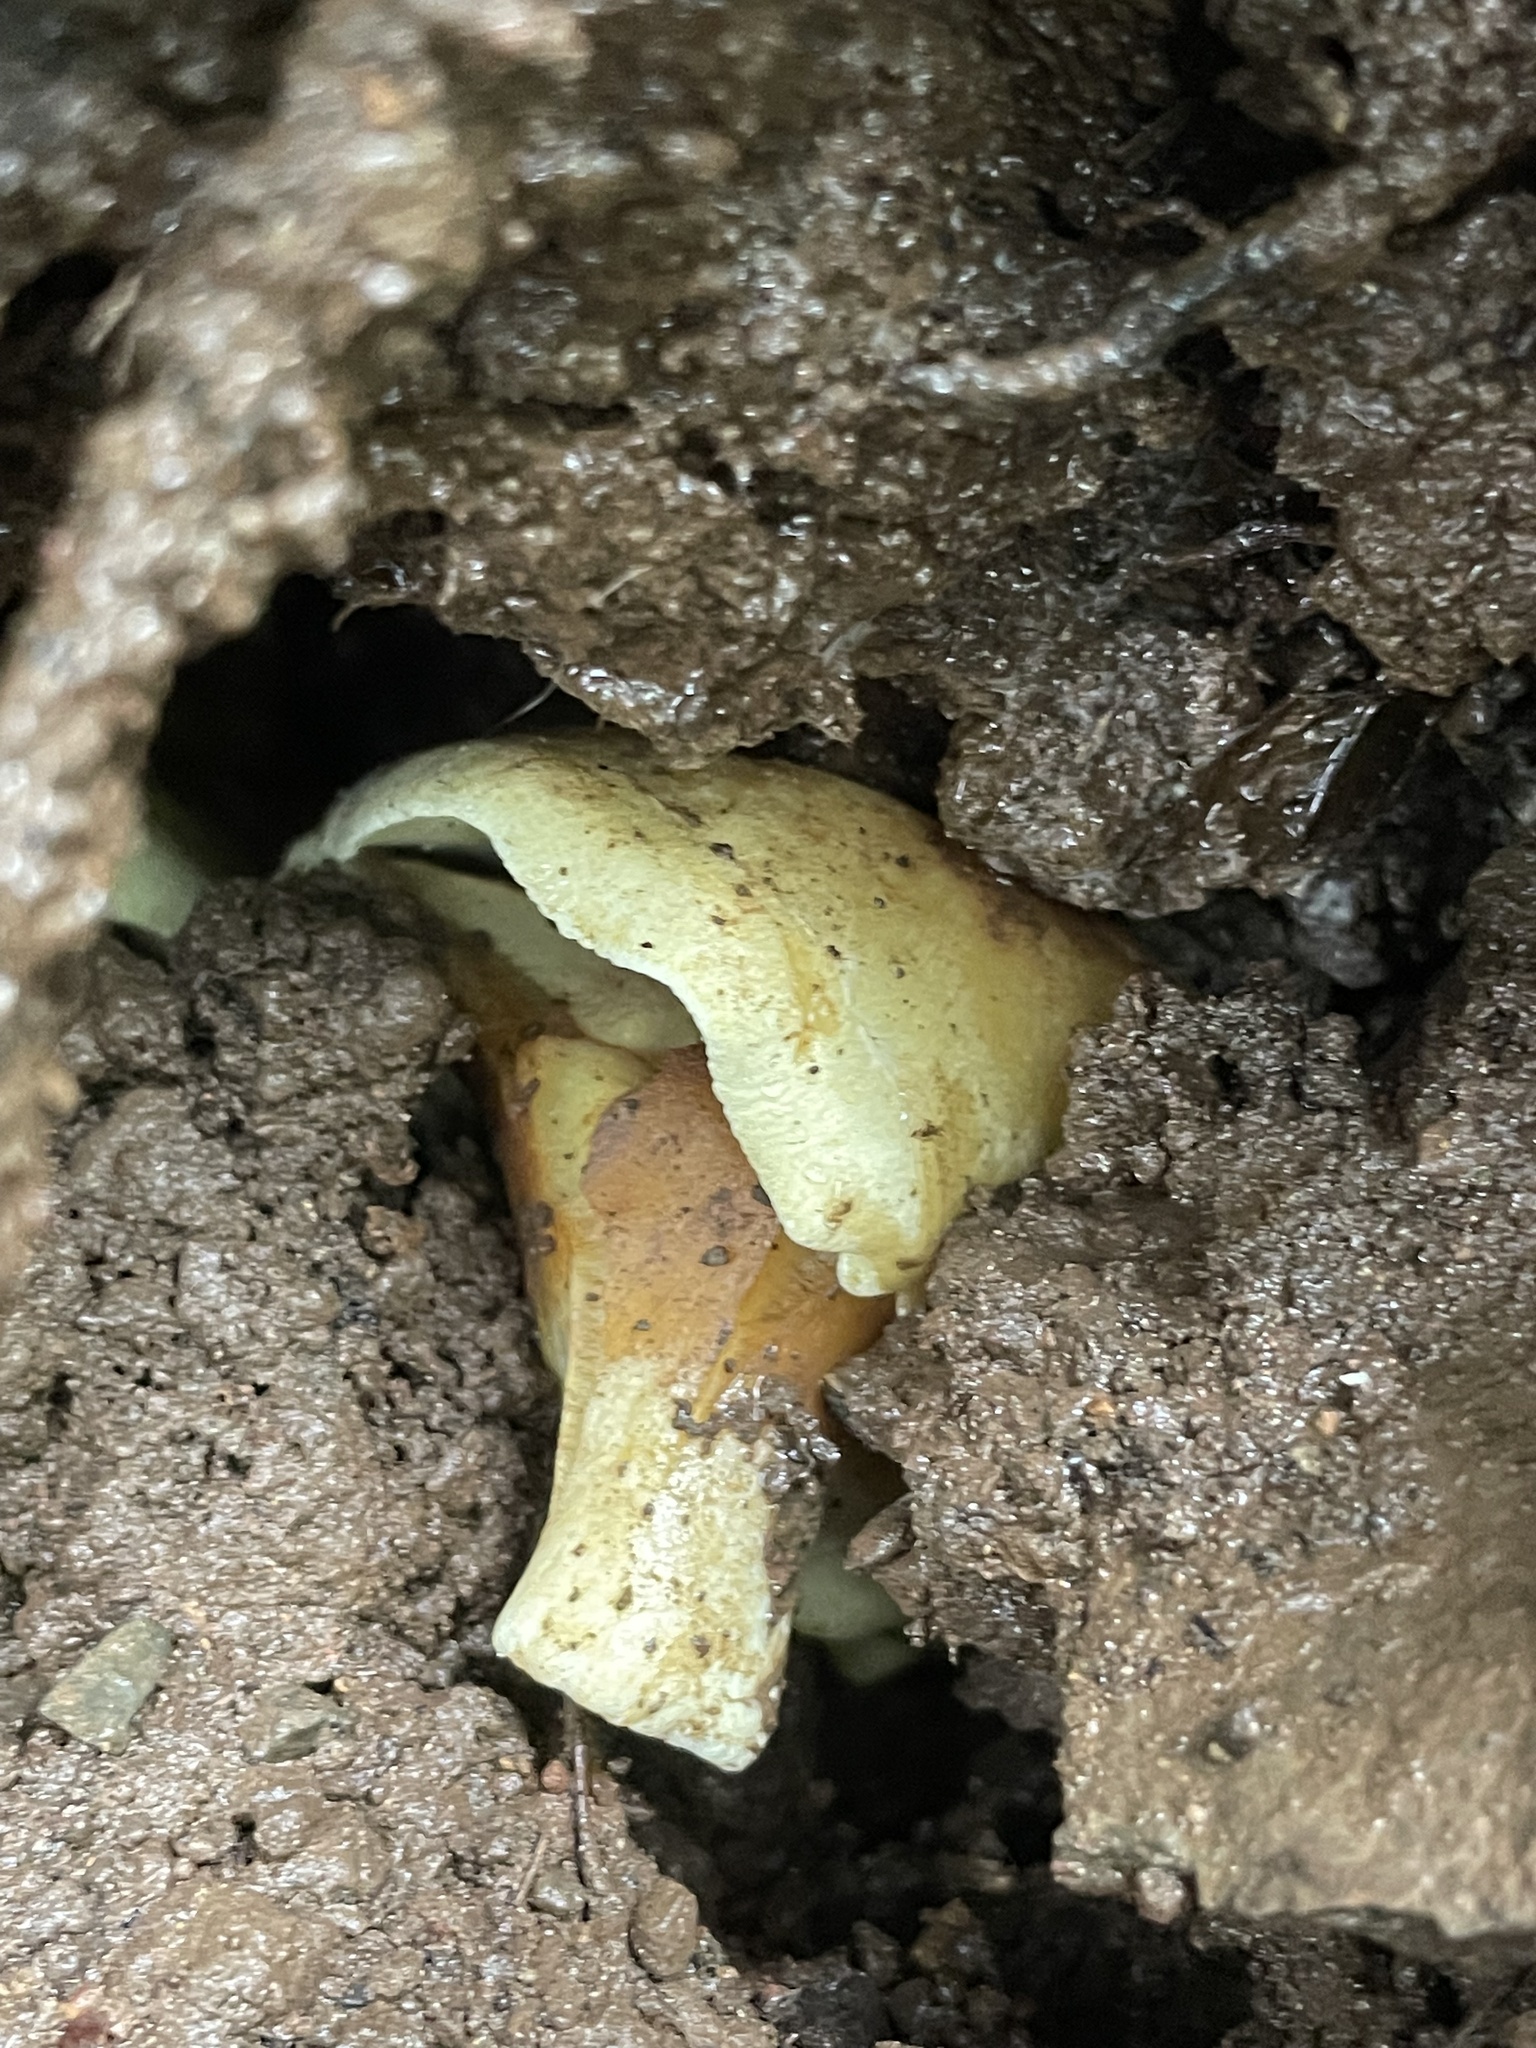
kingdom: Fungi
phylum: Basidiomycota
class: Agaricomycetes
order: Agaricales
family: Strophariaceae
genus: Hypholoma
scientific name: Hypholoma fasciculare
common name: Sulphur tuft
